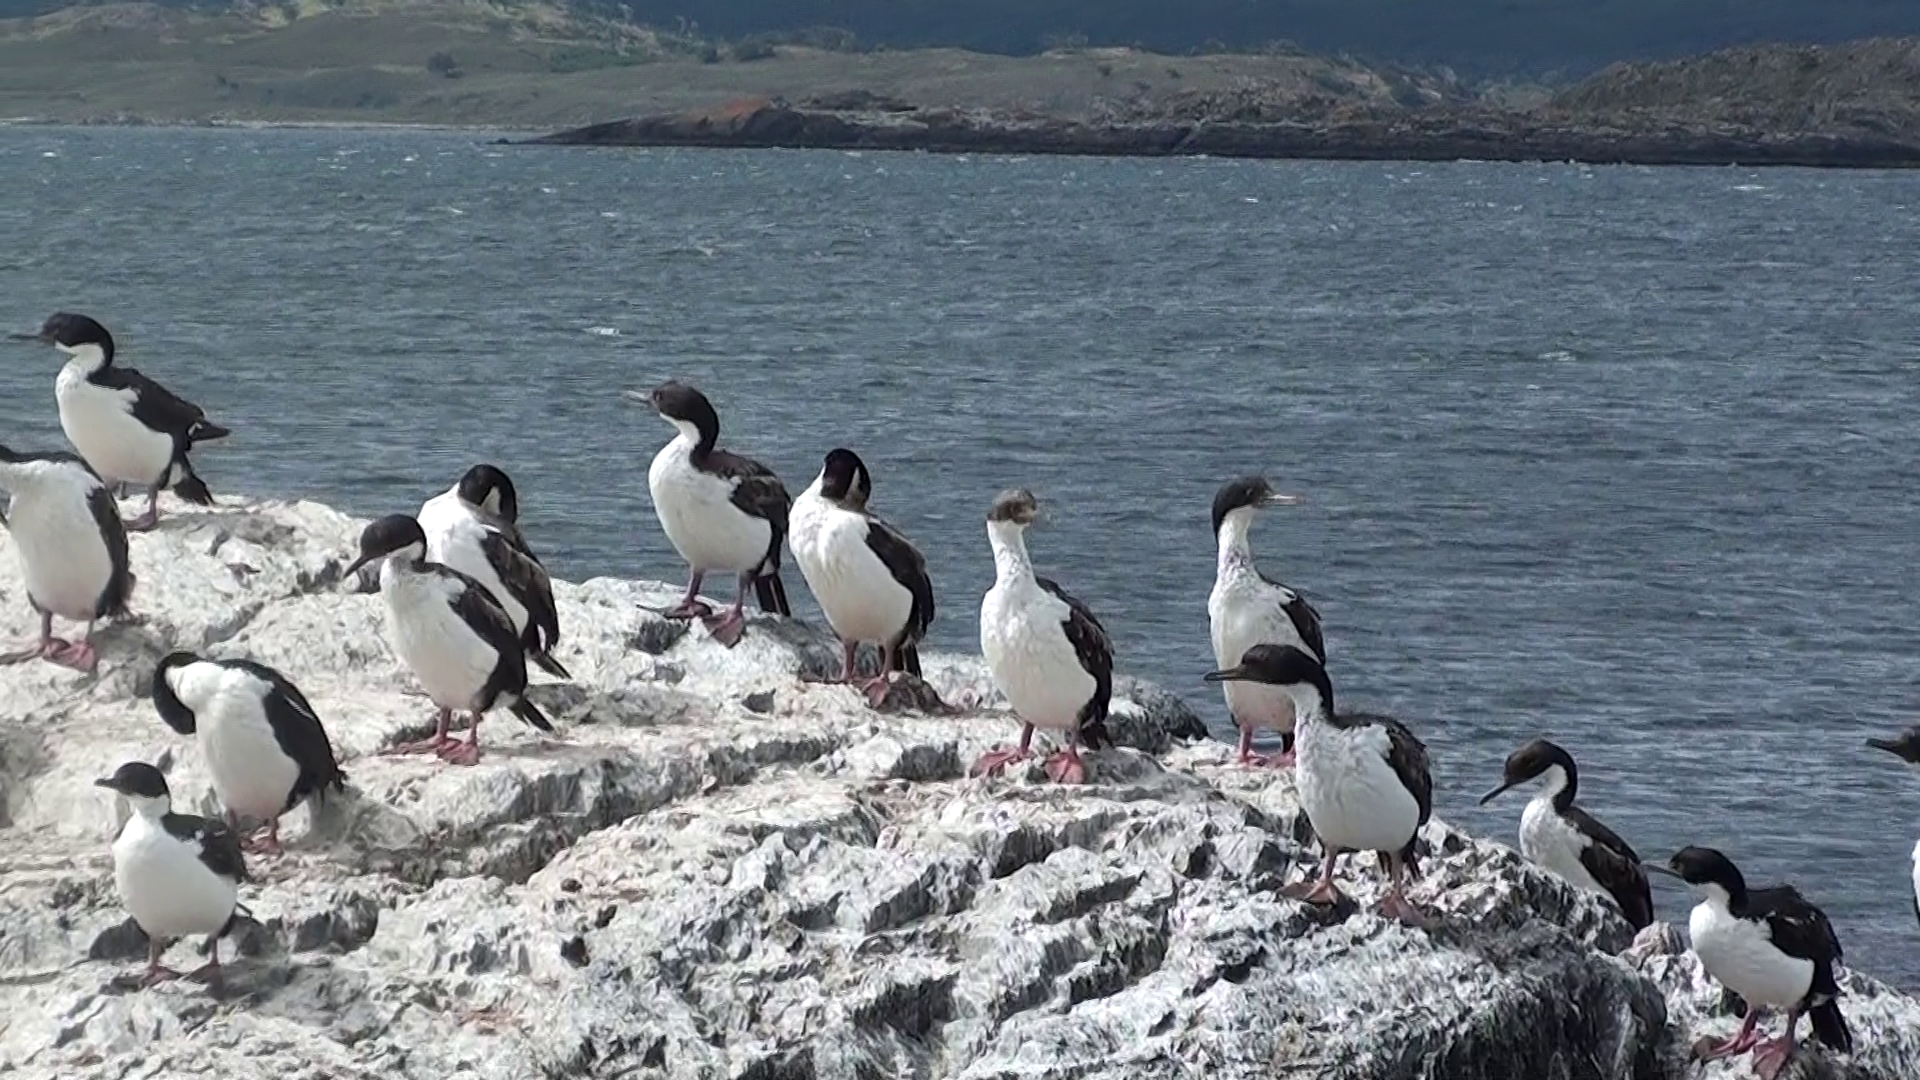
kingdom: Animalia
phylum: Chordata
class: Aves
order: Suliformes
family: Phalacrocoracidae
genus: Leucocarbo
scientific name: Leucocarbo albiventer
